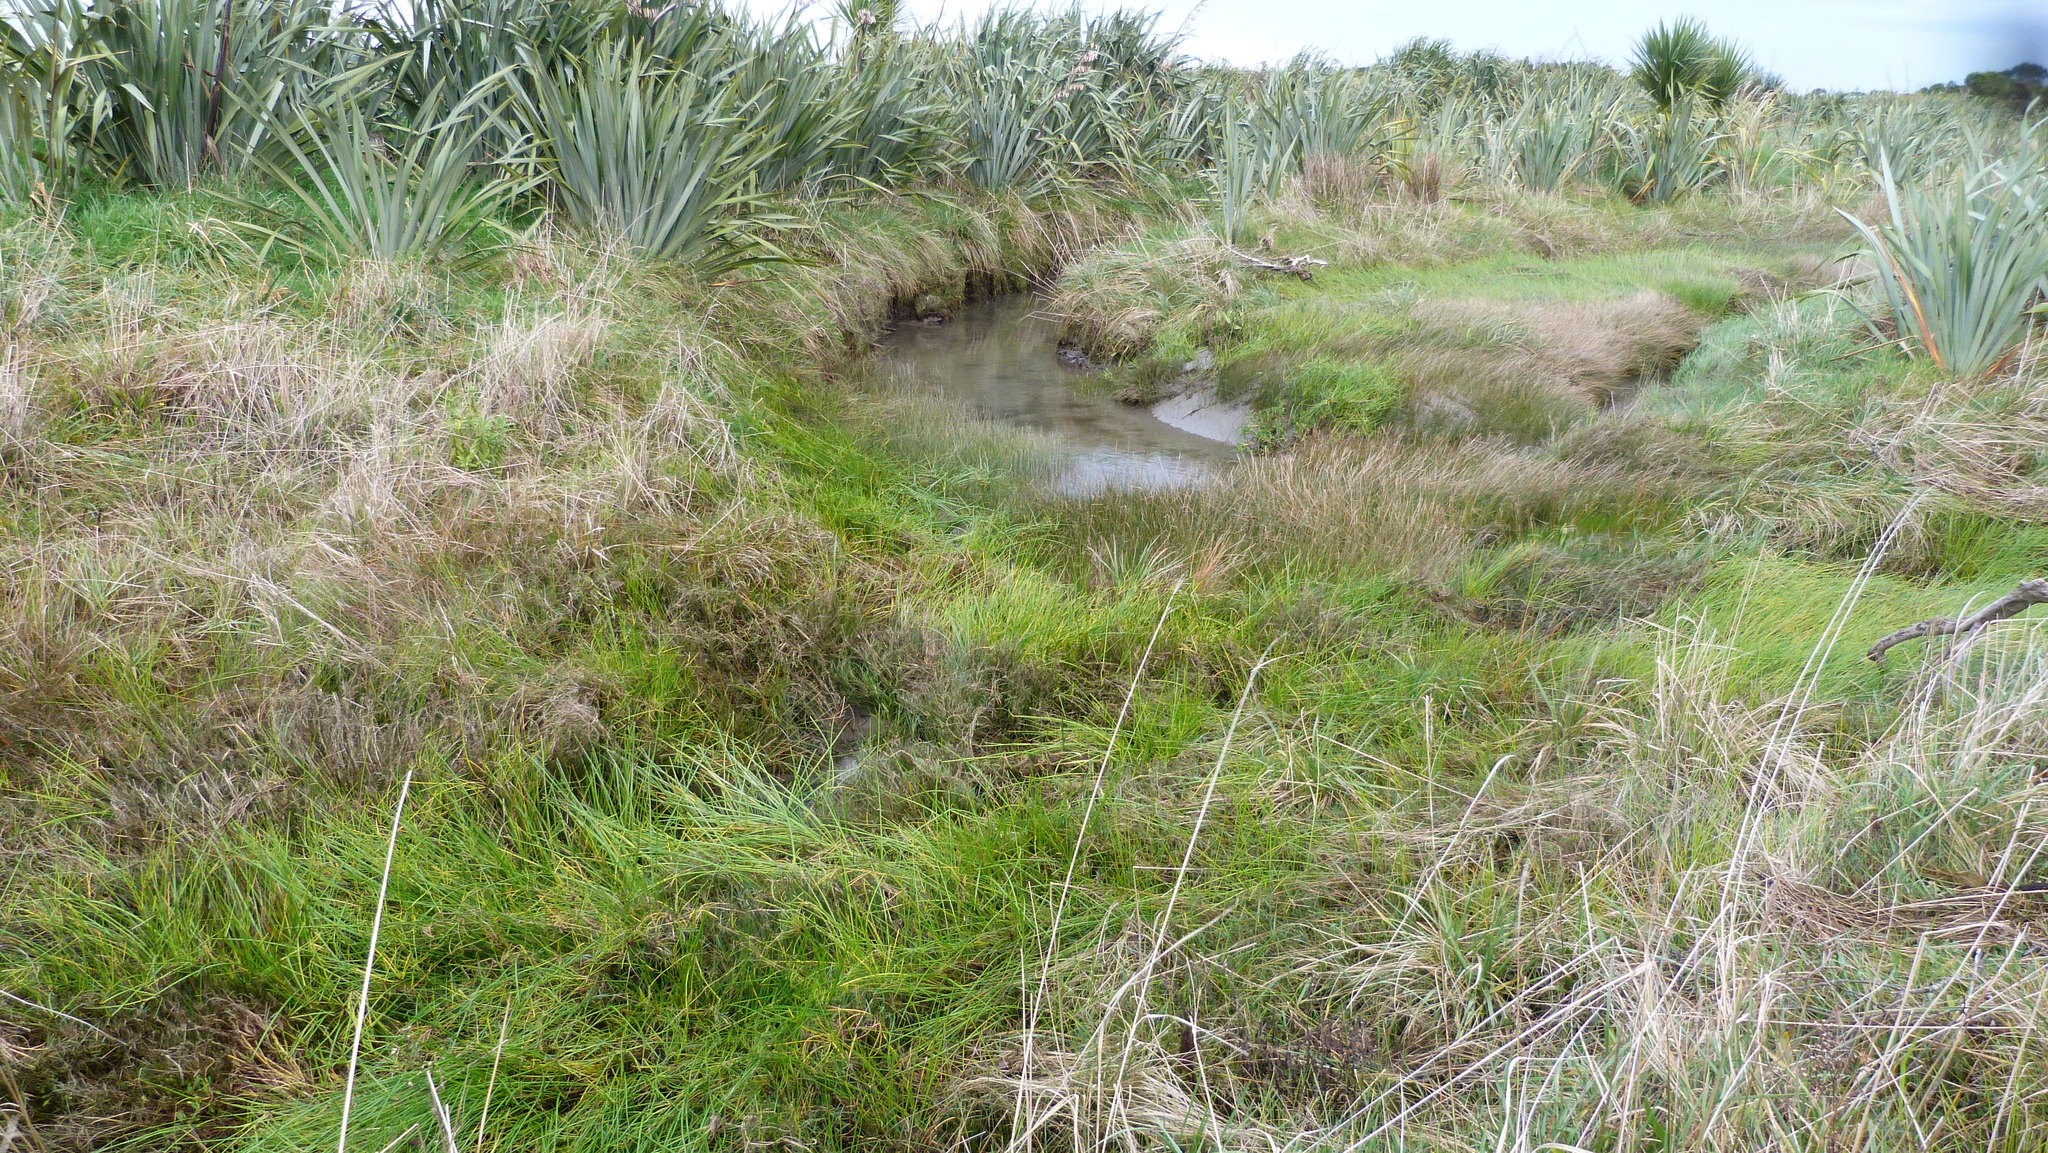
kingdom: Plantae
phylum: Tracheophyta
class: Liliopsida
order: Poales
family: Cyperaceae
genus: Isolepis
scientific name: Isolepis prolifera
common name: Proliferating bulrush
